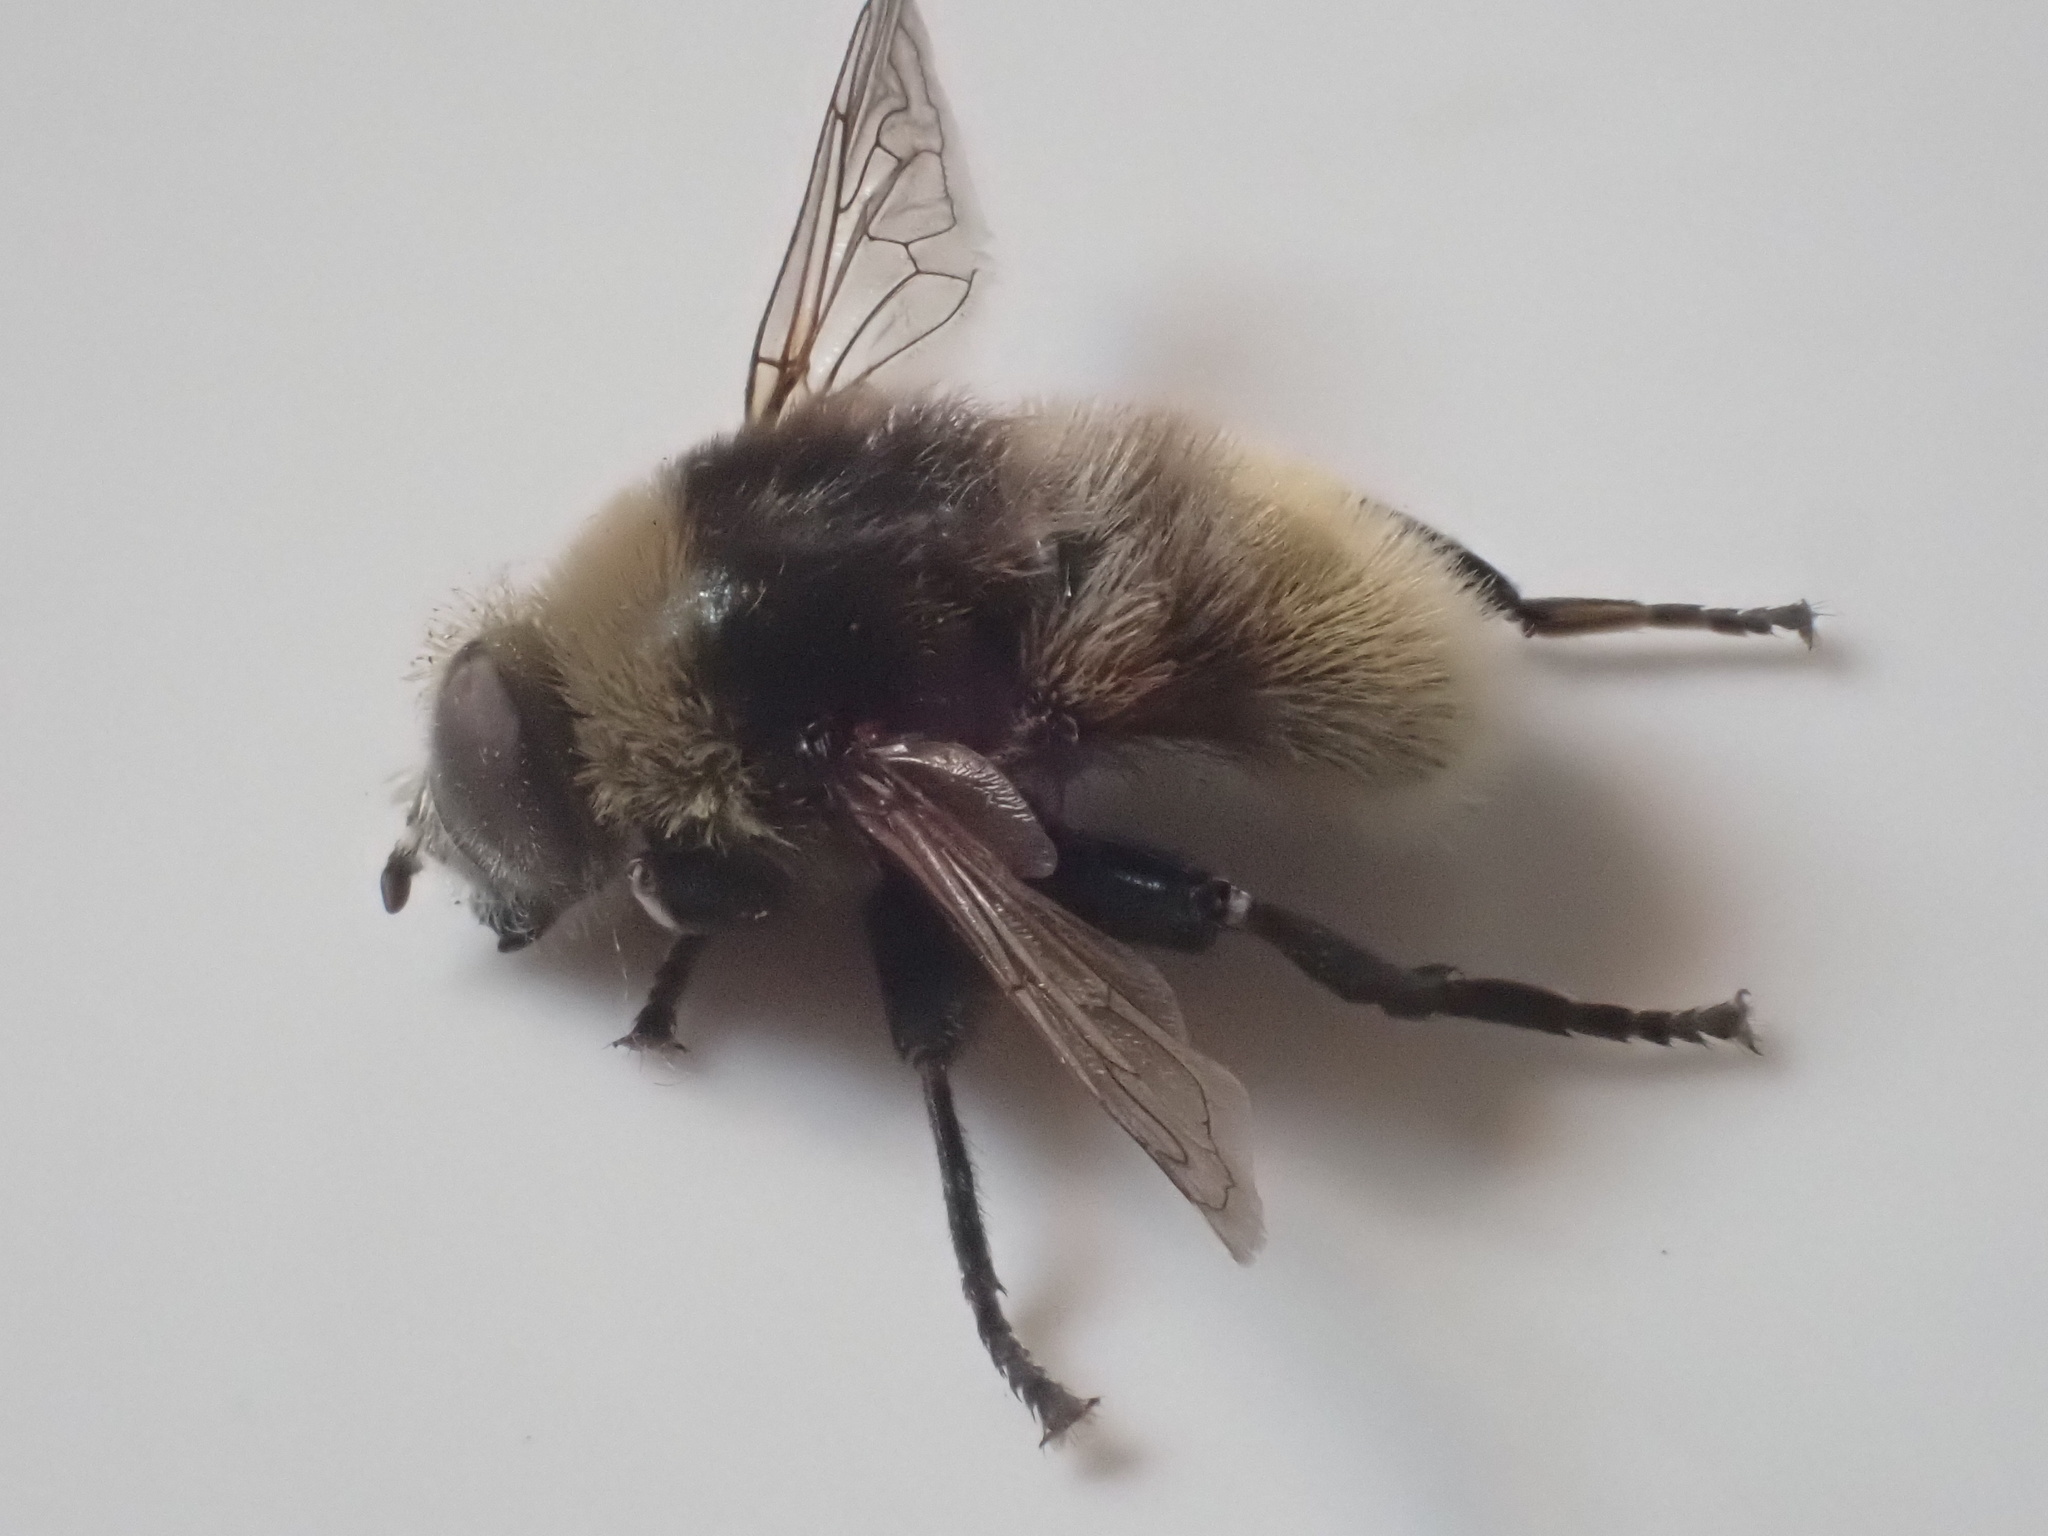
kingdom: Animalia
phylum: Arthropoda
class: Insecta
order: Diptera
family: Syrphidae
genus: Merodon
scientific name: Merodon equestris
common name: Greater bulb-fly
